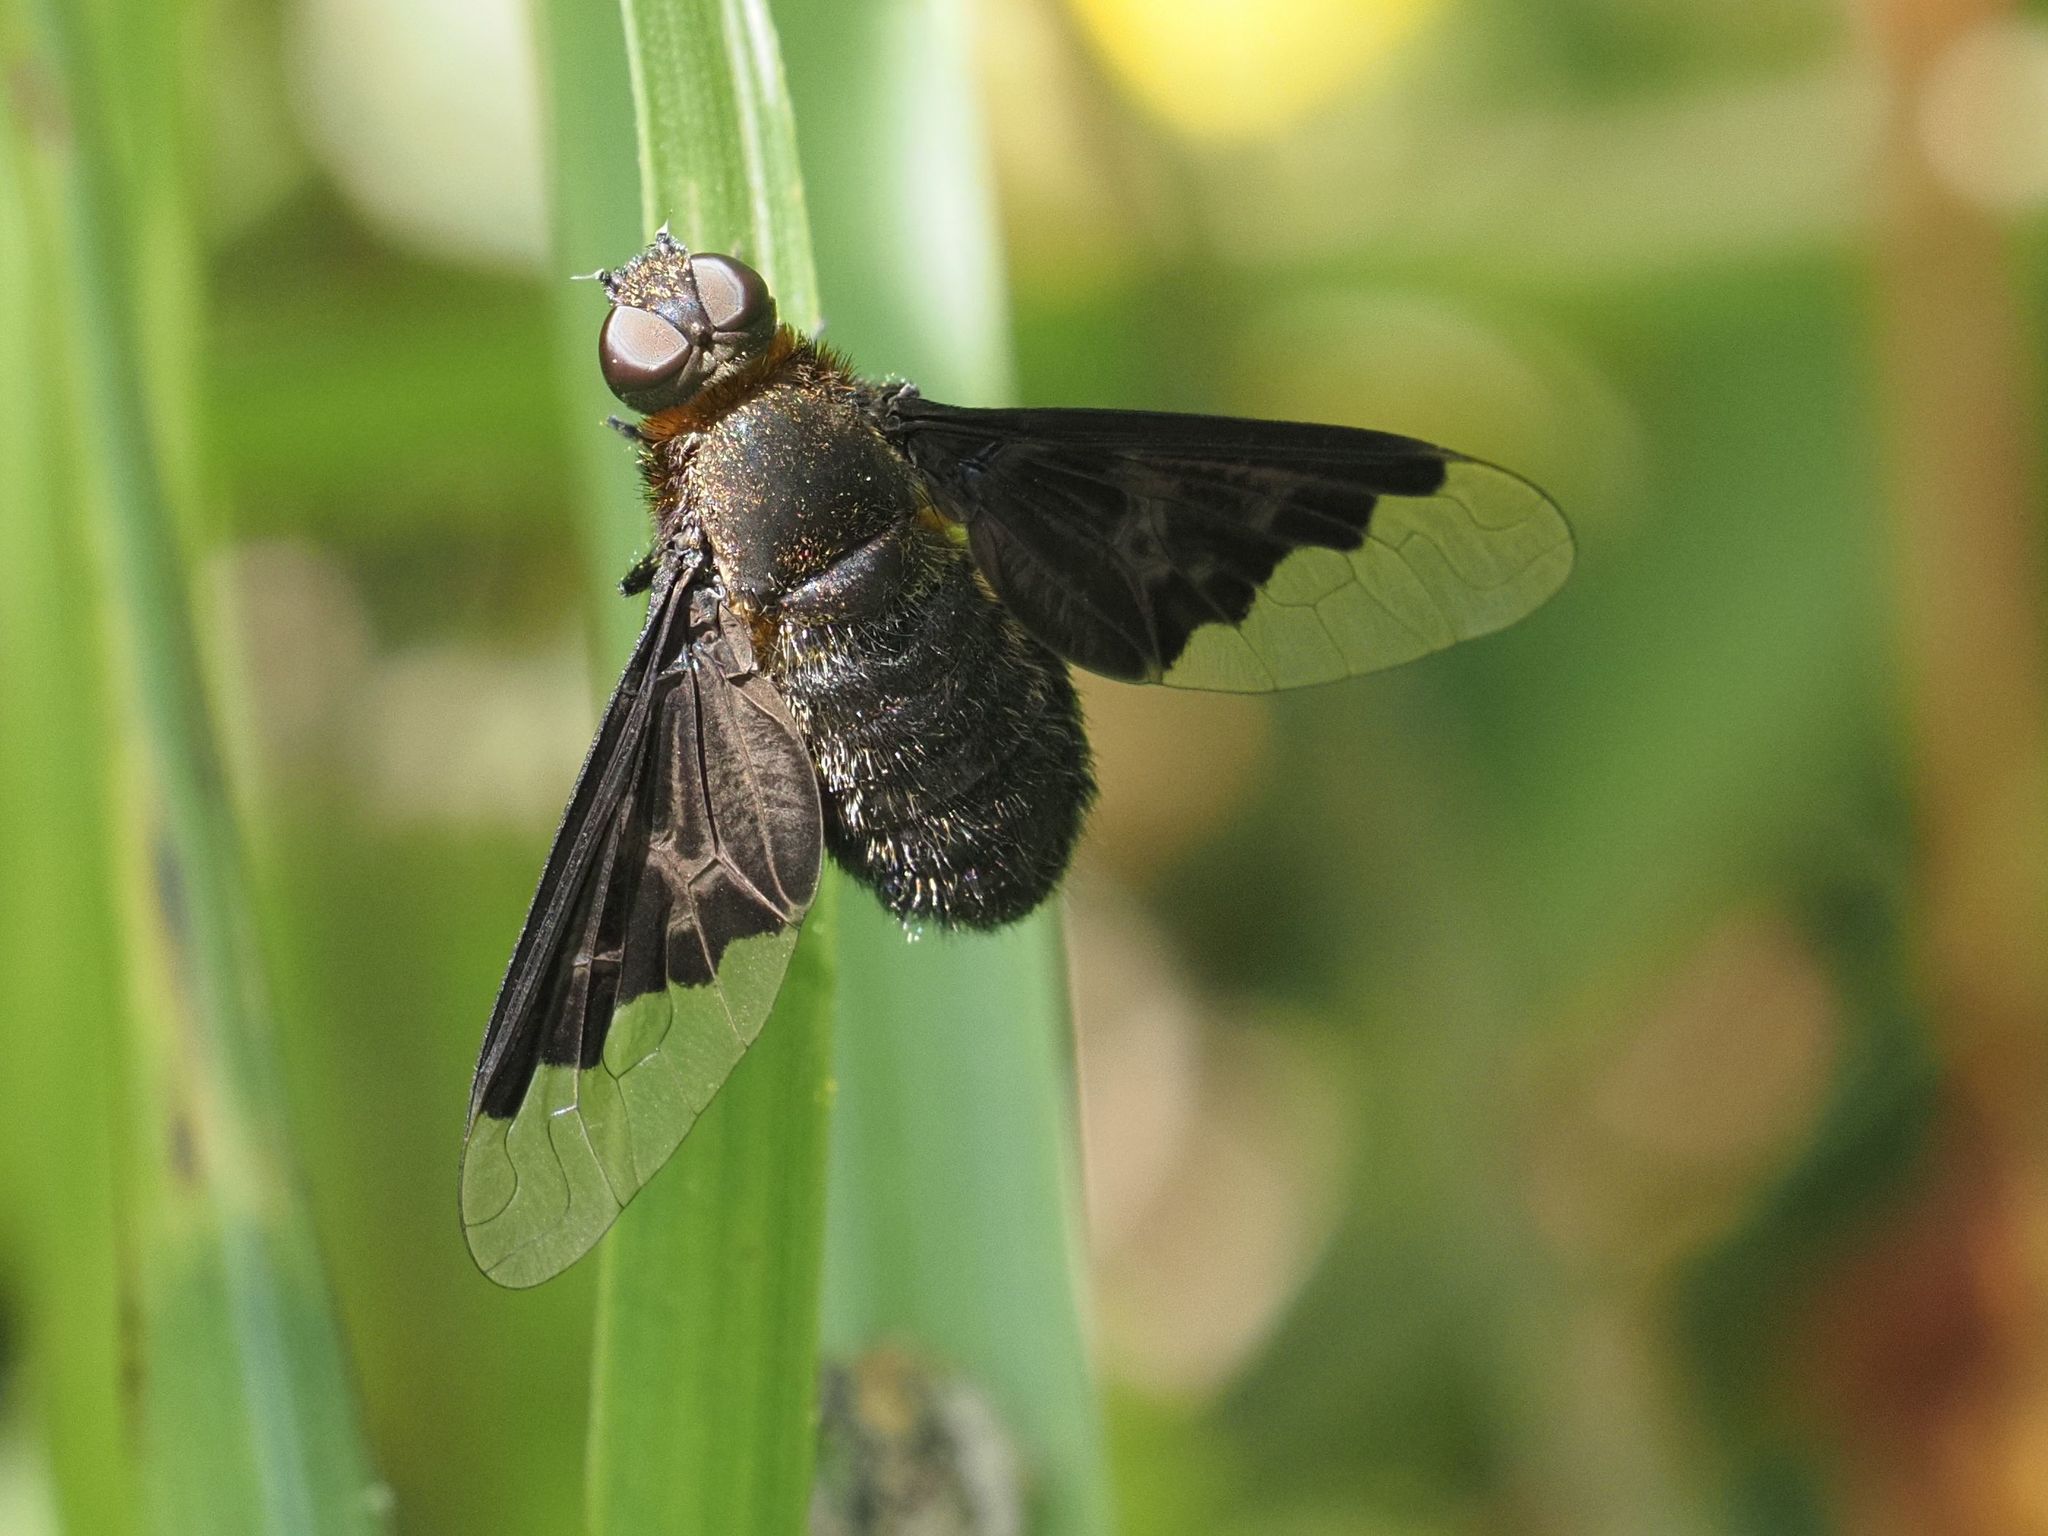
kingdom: Animalia
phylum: Arthropoda
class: Insecta
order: Diptera
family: Bombyliidae
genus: Hemipenthes
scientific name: Hemipenthes morio
